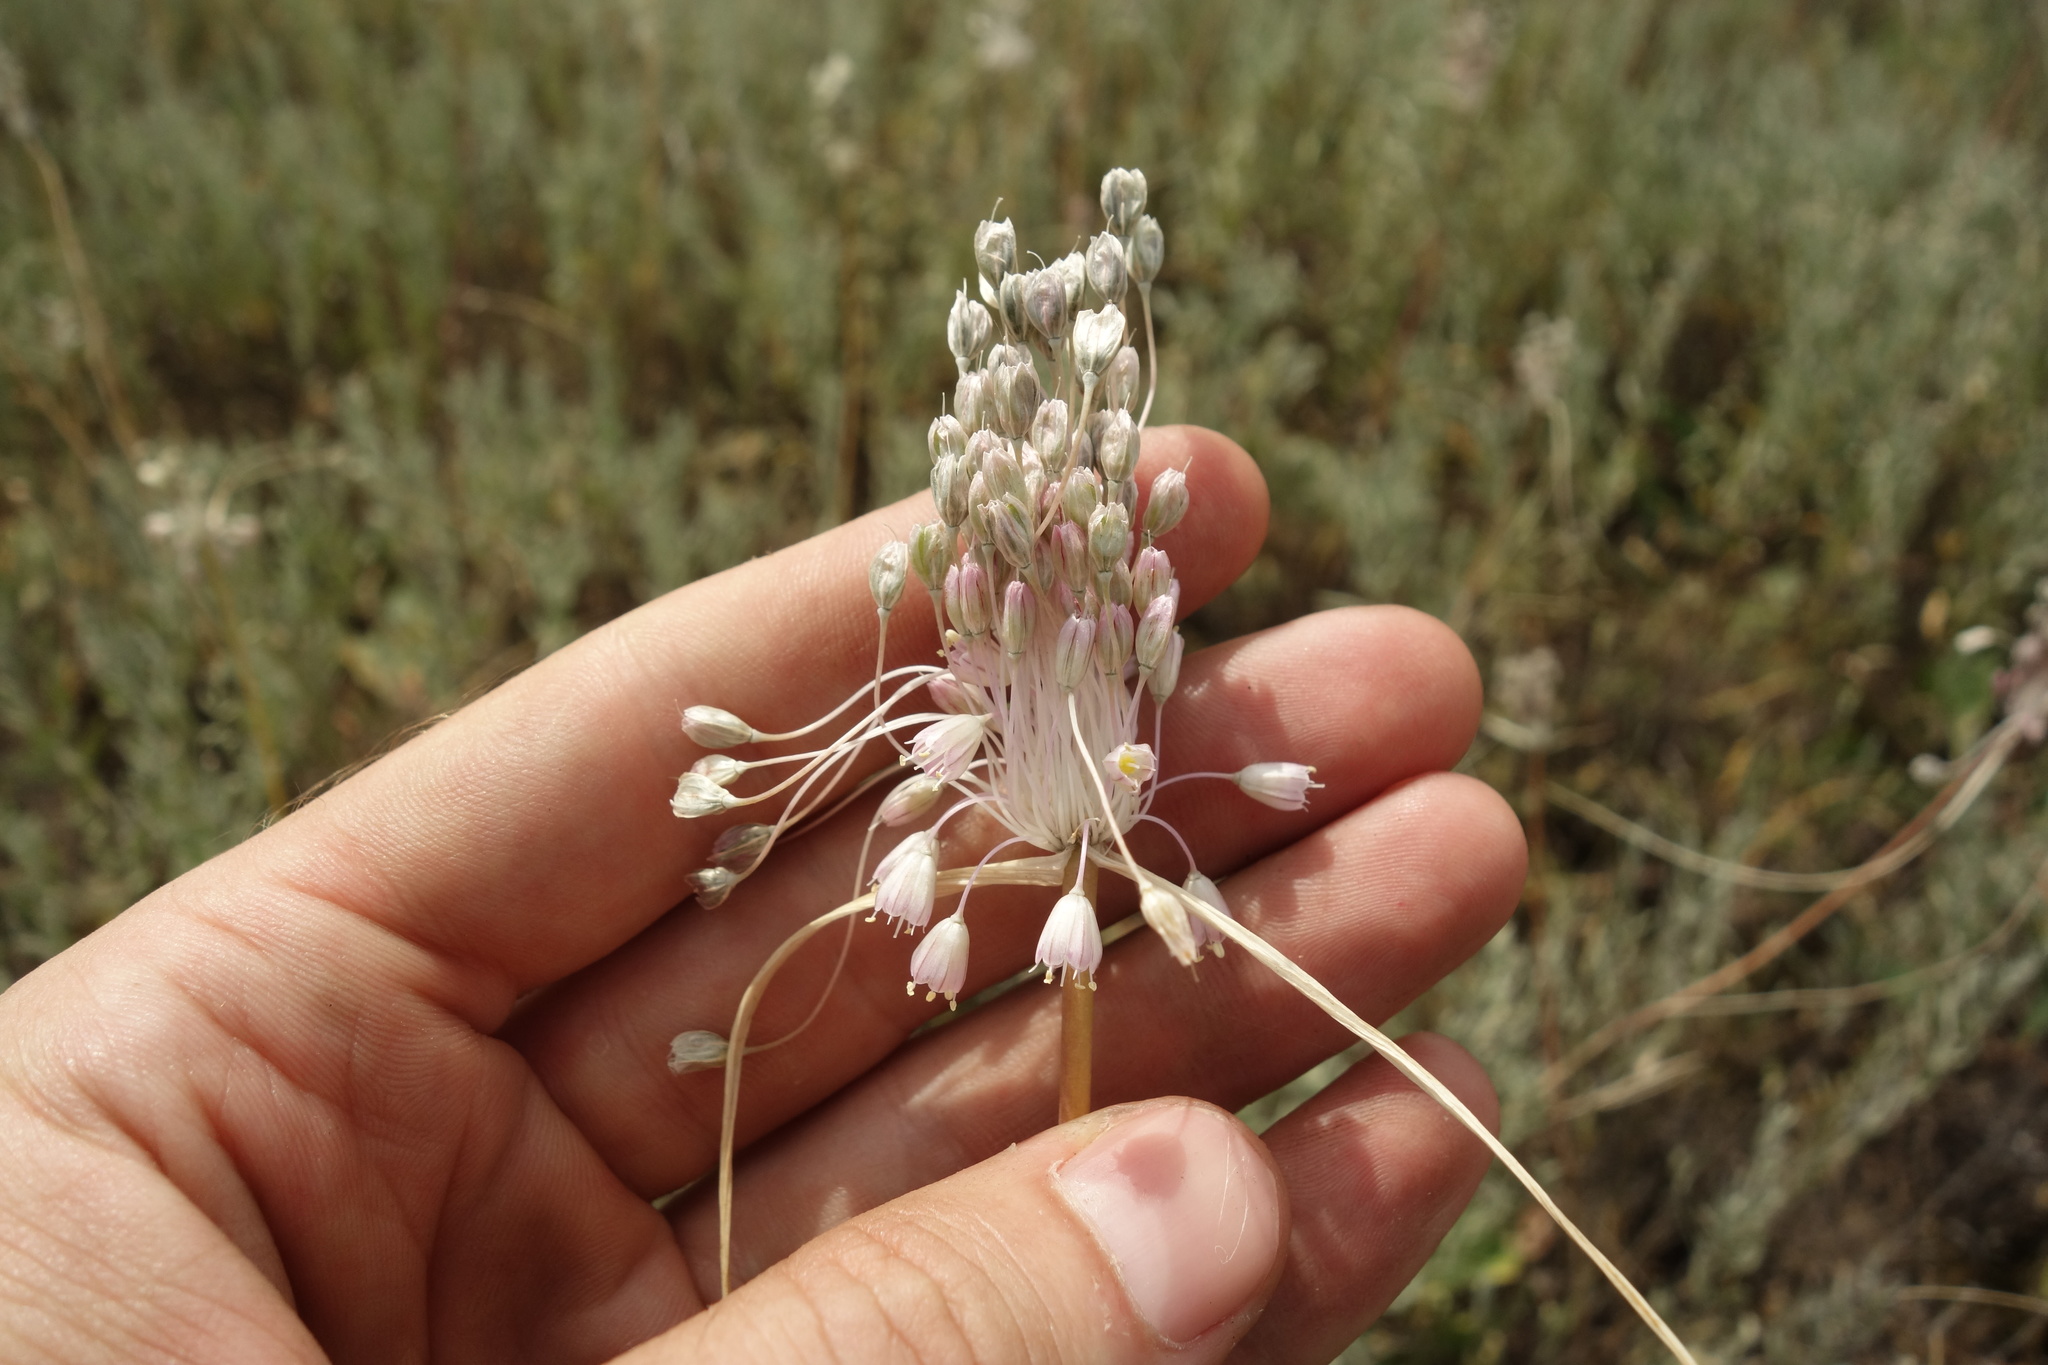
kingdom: Plantae
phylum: Tracheophyta
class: Liliopsida
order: Asparagales
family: Amaryllidaceae
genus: Allium
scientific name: Allium podolicum
